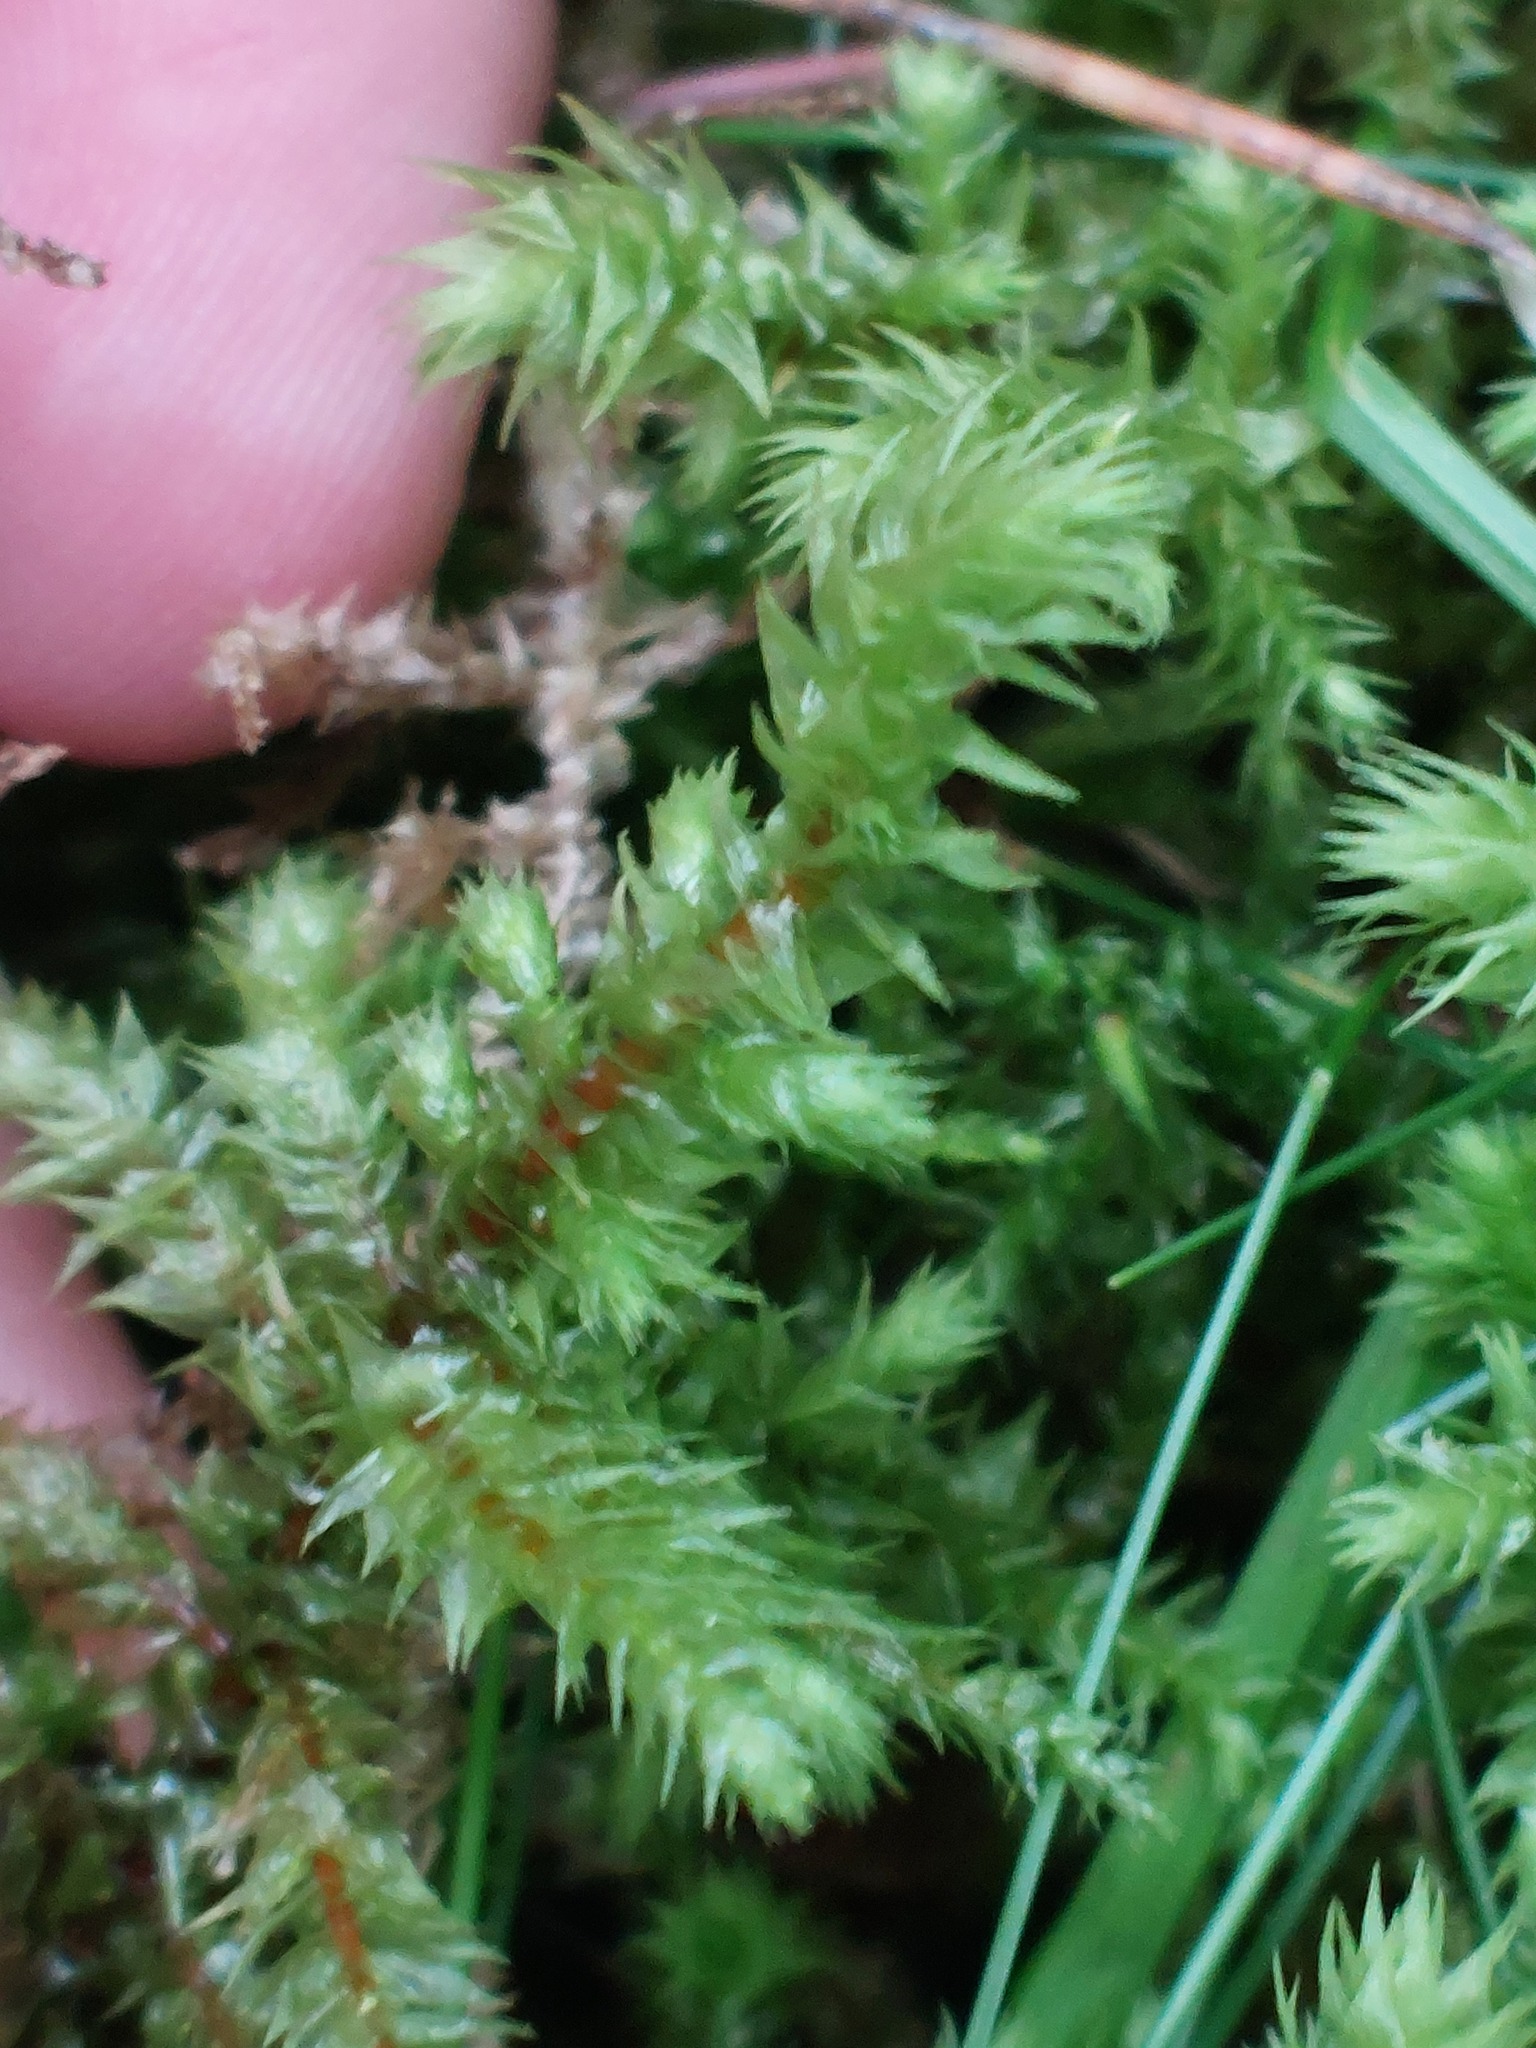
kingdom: Plantae
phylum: Bryophyta
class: Bryopsida
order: Hypnales
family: Hylocomiaceae
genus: Hylocomiadelphus
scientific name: Hylocomiadelphus triquetrus
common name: Rough goose neck moss
